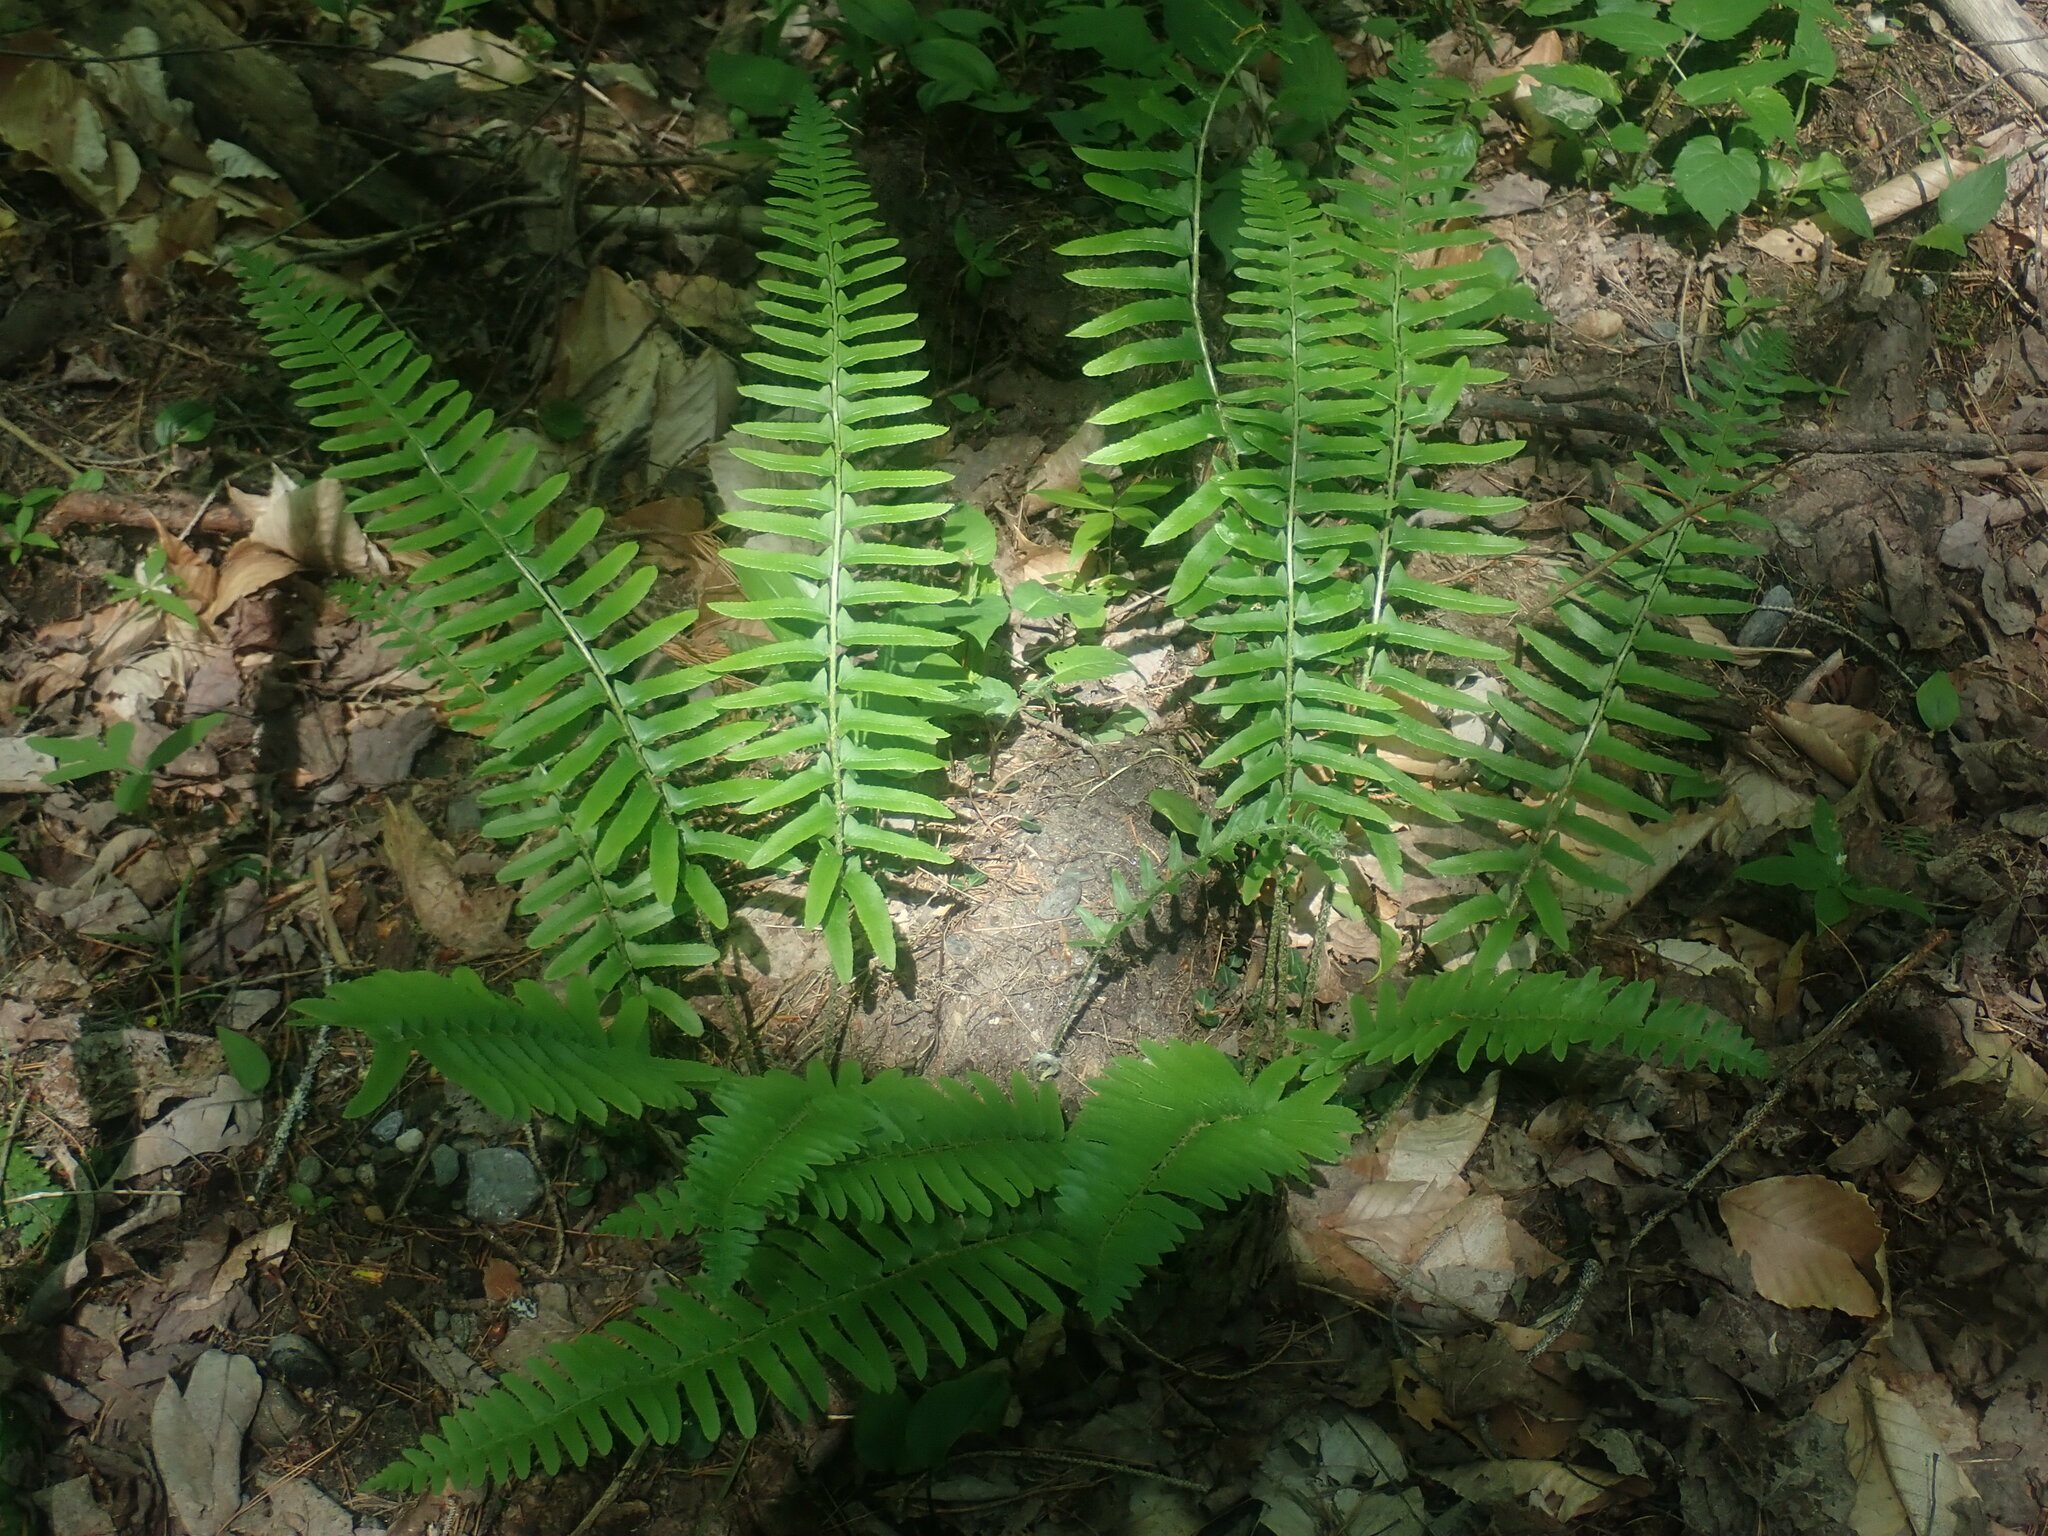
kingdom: Plantae
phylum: Tracheophyta
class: Polypodiopsida
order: Polypodiales
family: Dryopteridaceae
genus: Polystichum
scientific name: Polystichum acrostichoides
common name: Christmas fern
